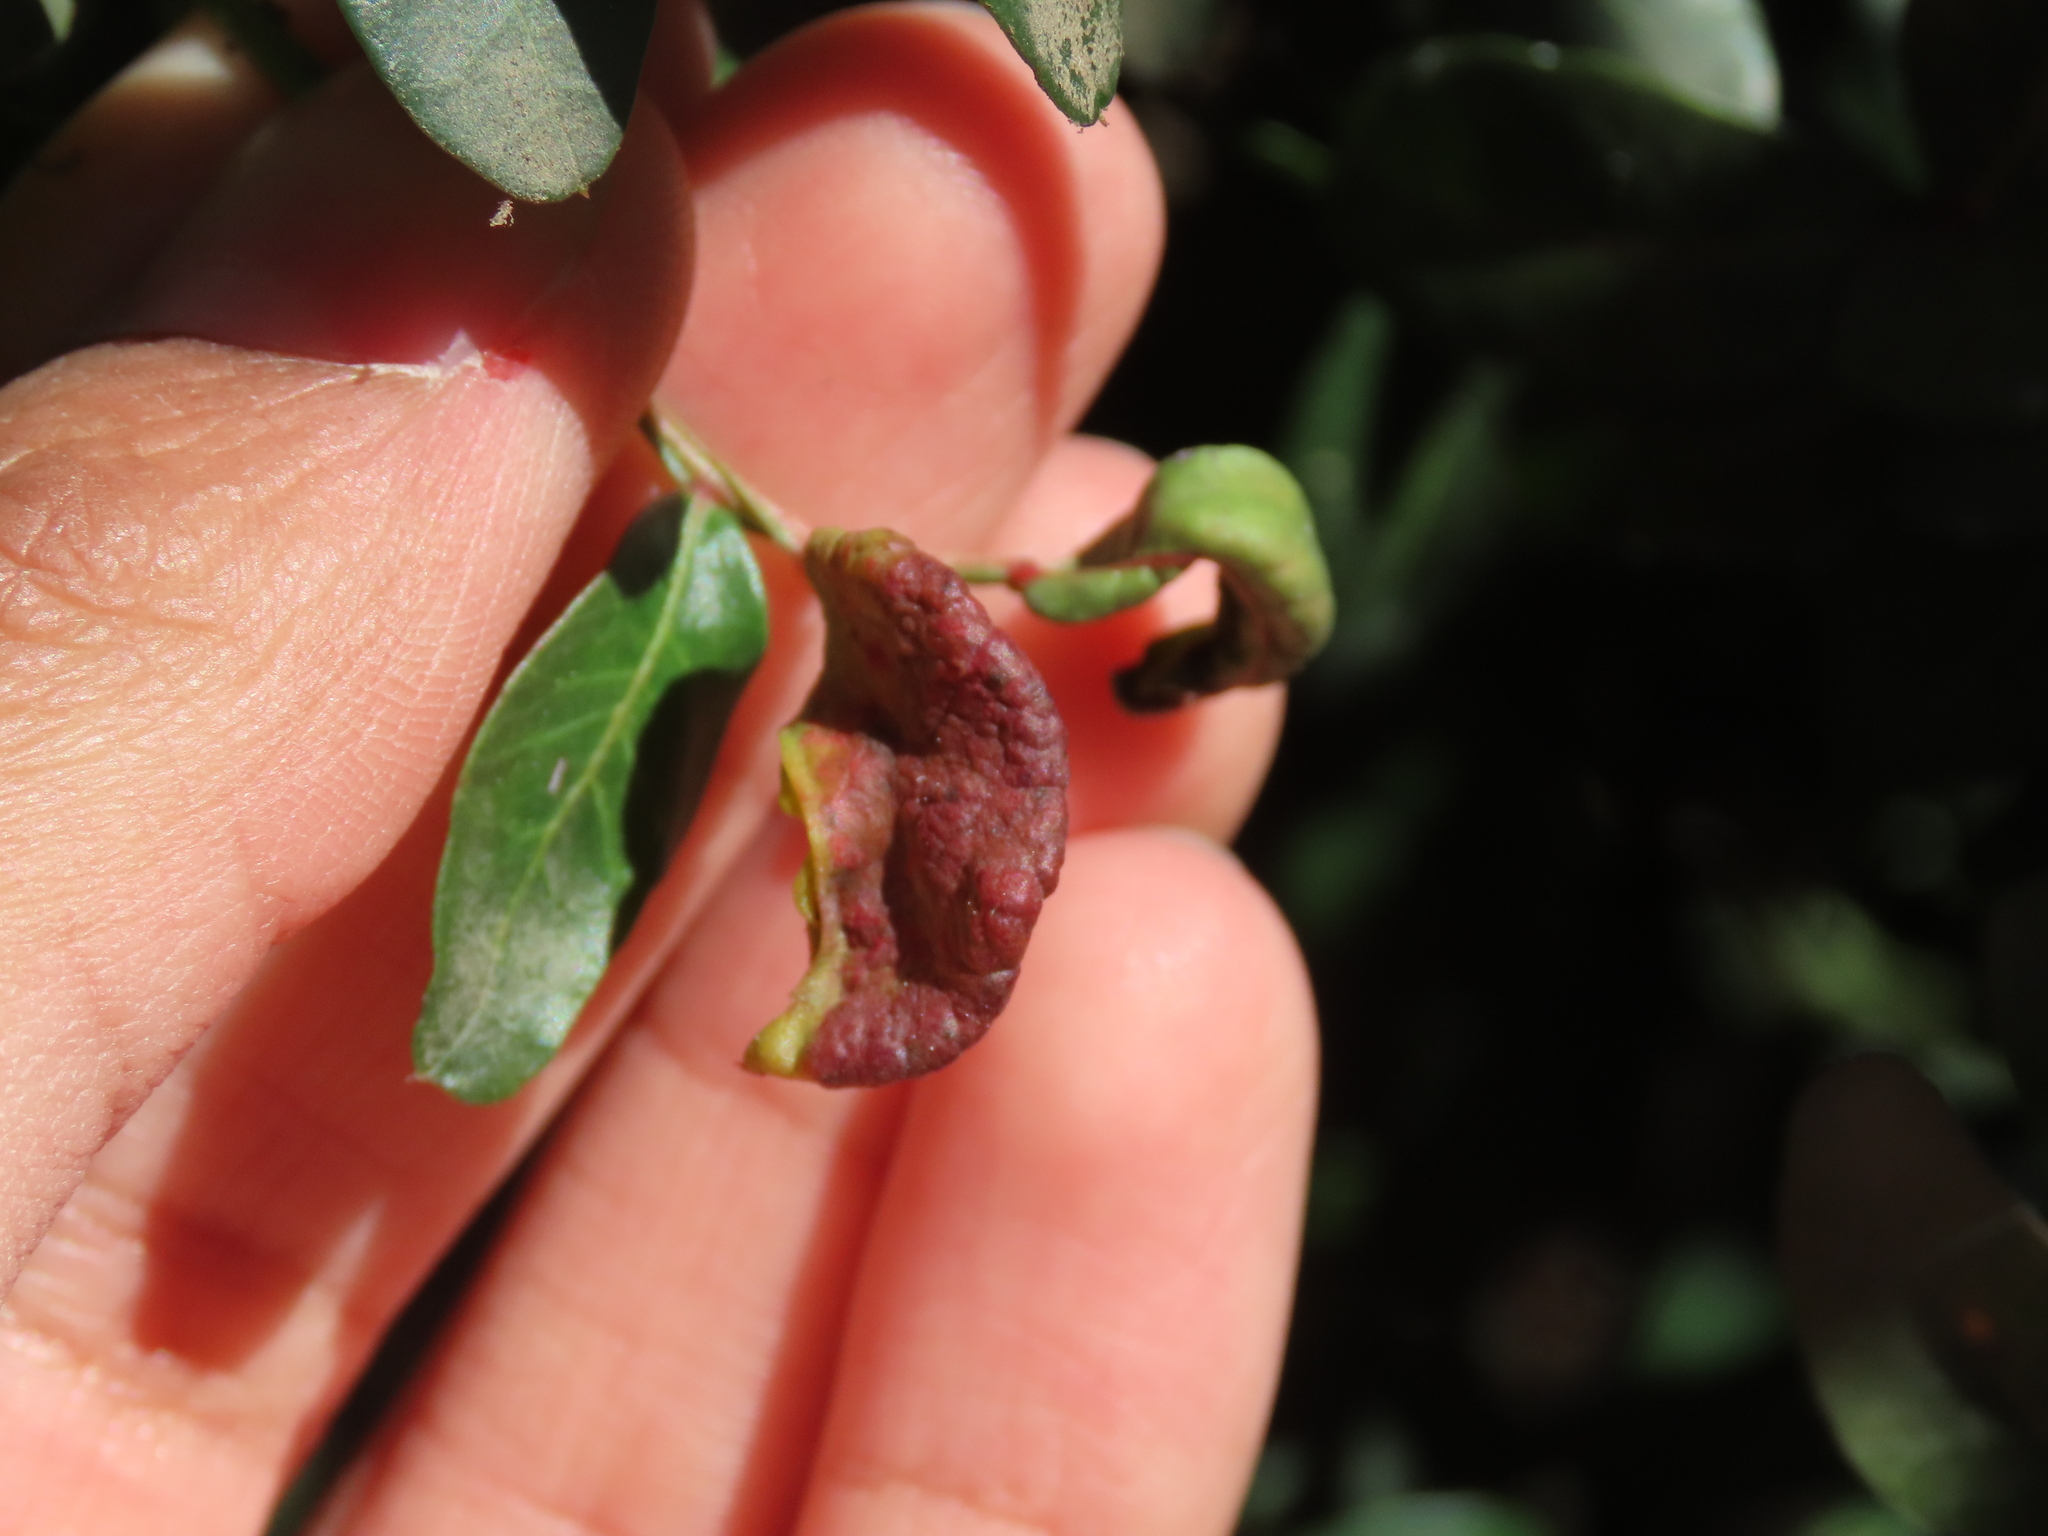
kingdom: Animalia
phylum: Arthropoda
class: Insecta
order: Hemiptera
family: Aphididae
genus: Aploneura
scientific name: Aploneura lentisci
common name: Mealy grass root aphid
